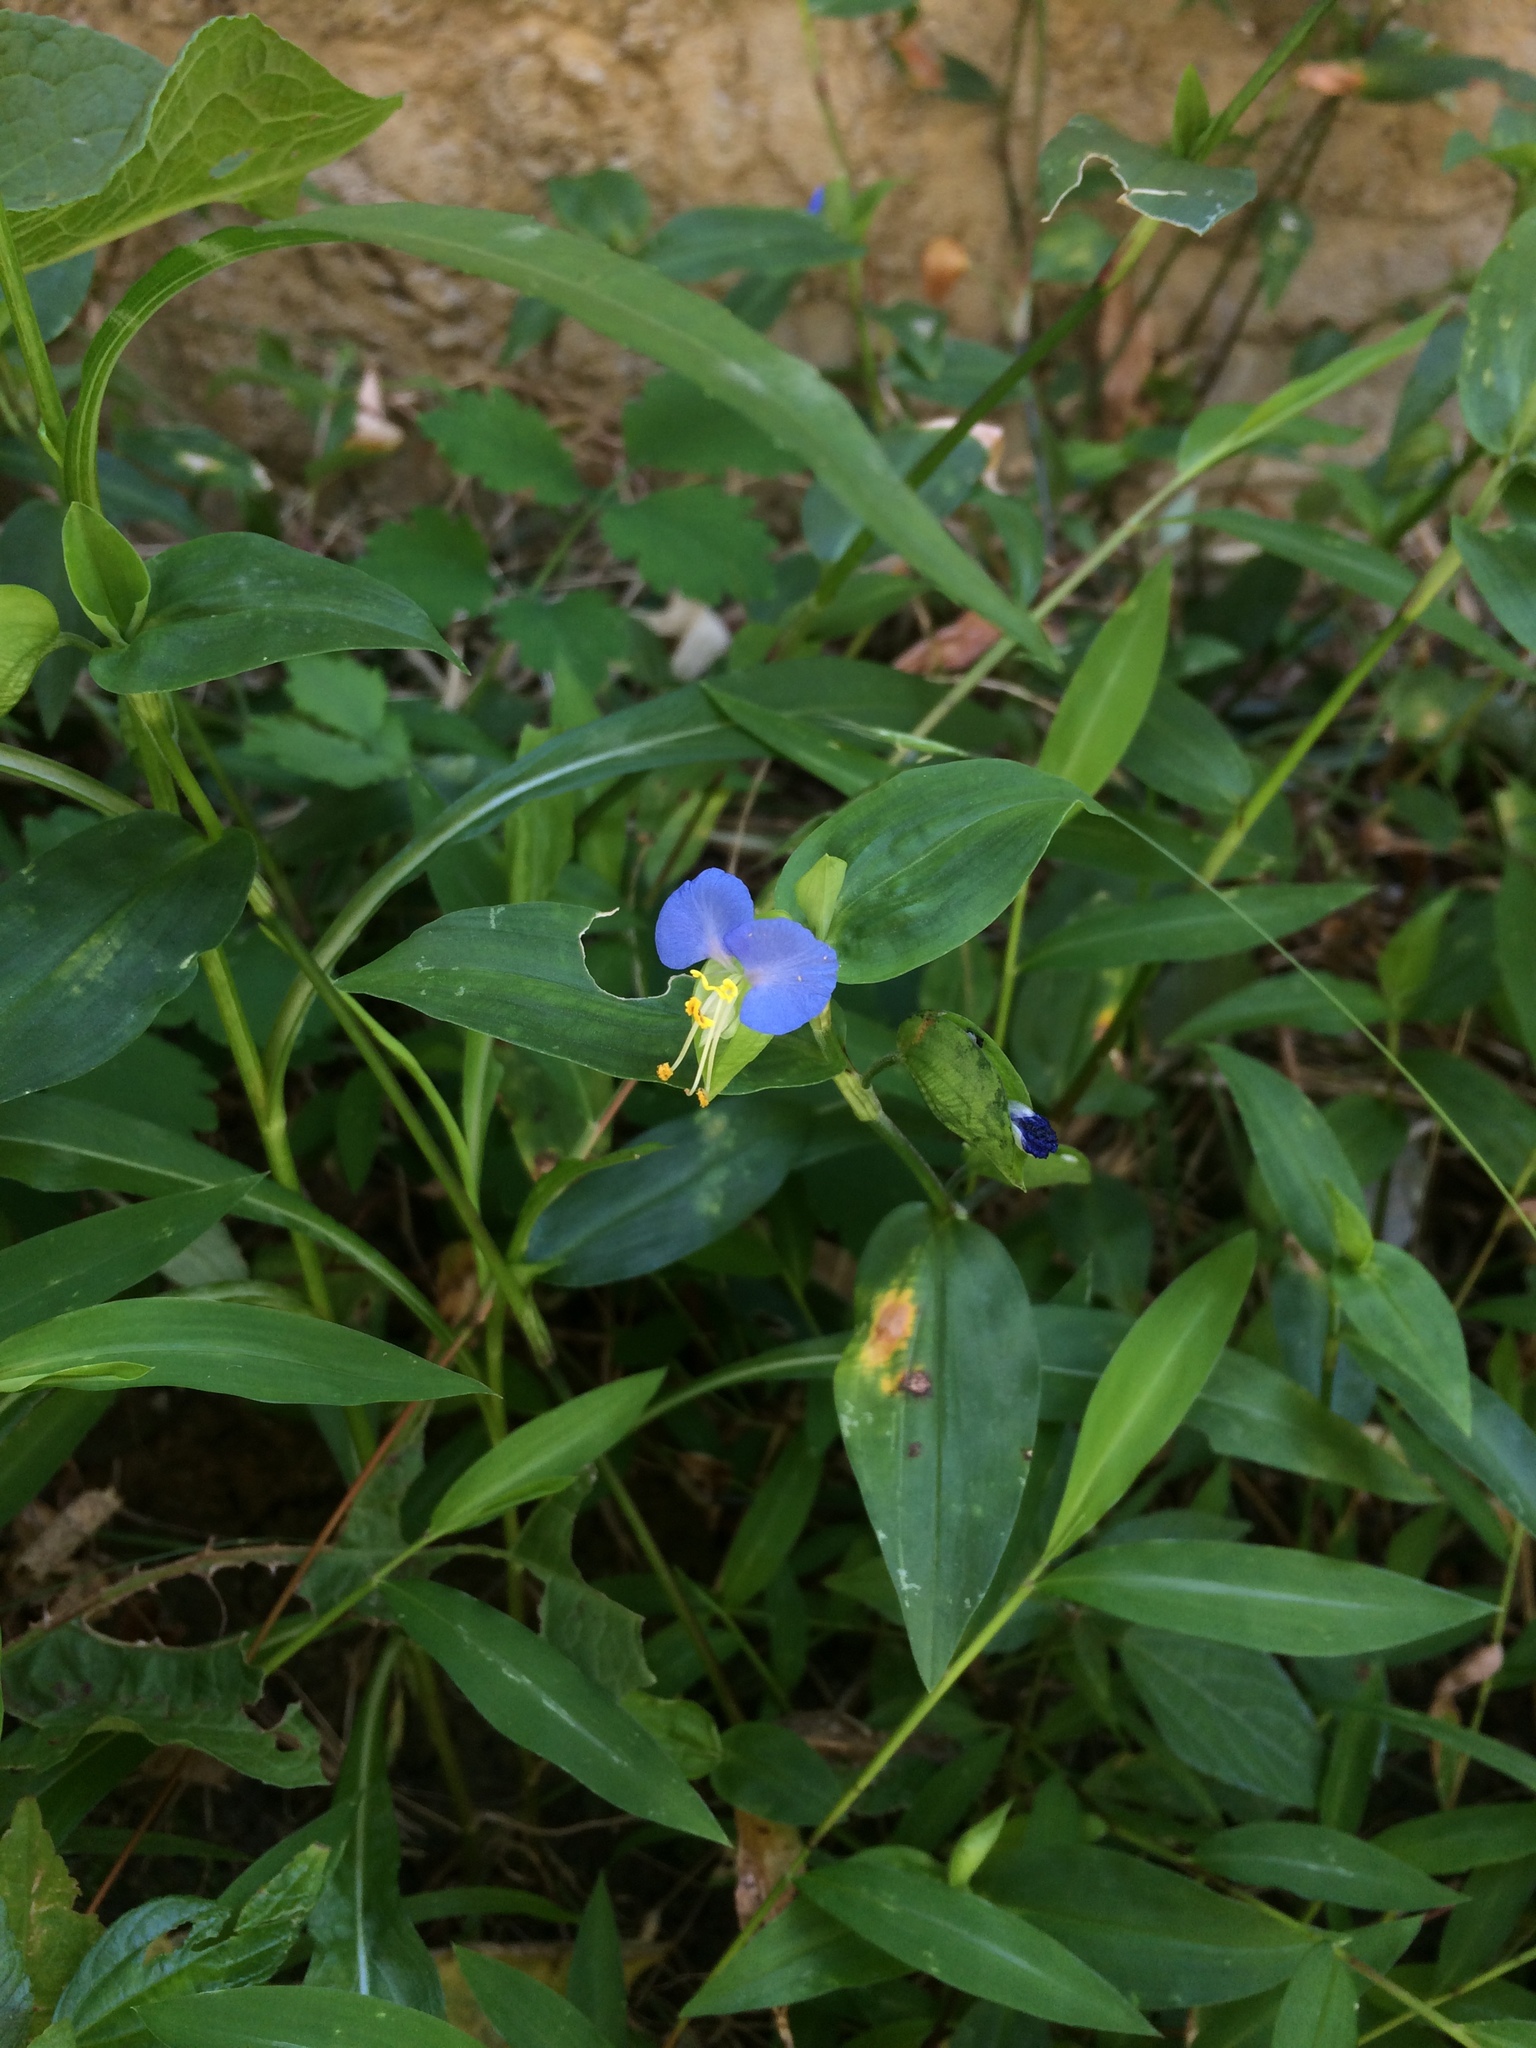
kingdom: Plantae
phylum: Tracheophyta
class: Liliopsida
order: Commelinales
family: Commelinaceae
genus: Commelina
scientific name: Commelina communis
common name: Asiatic dayflower
